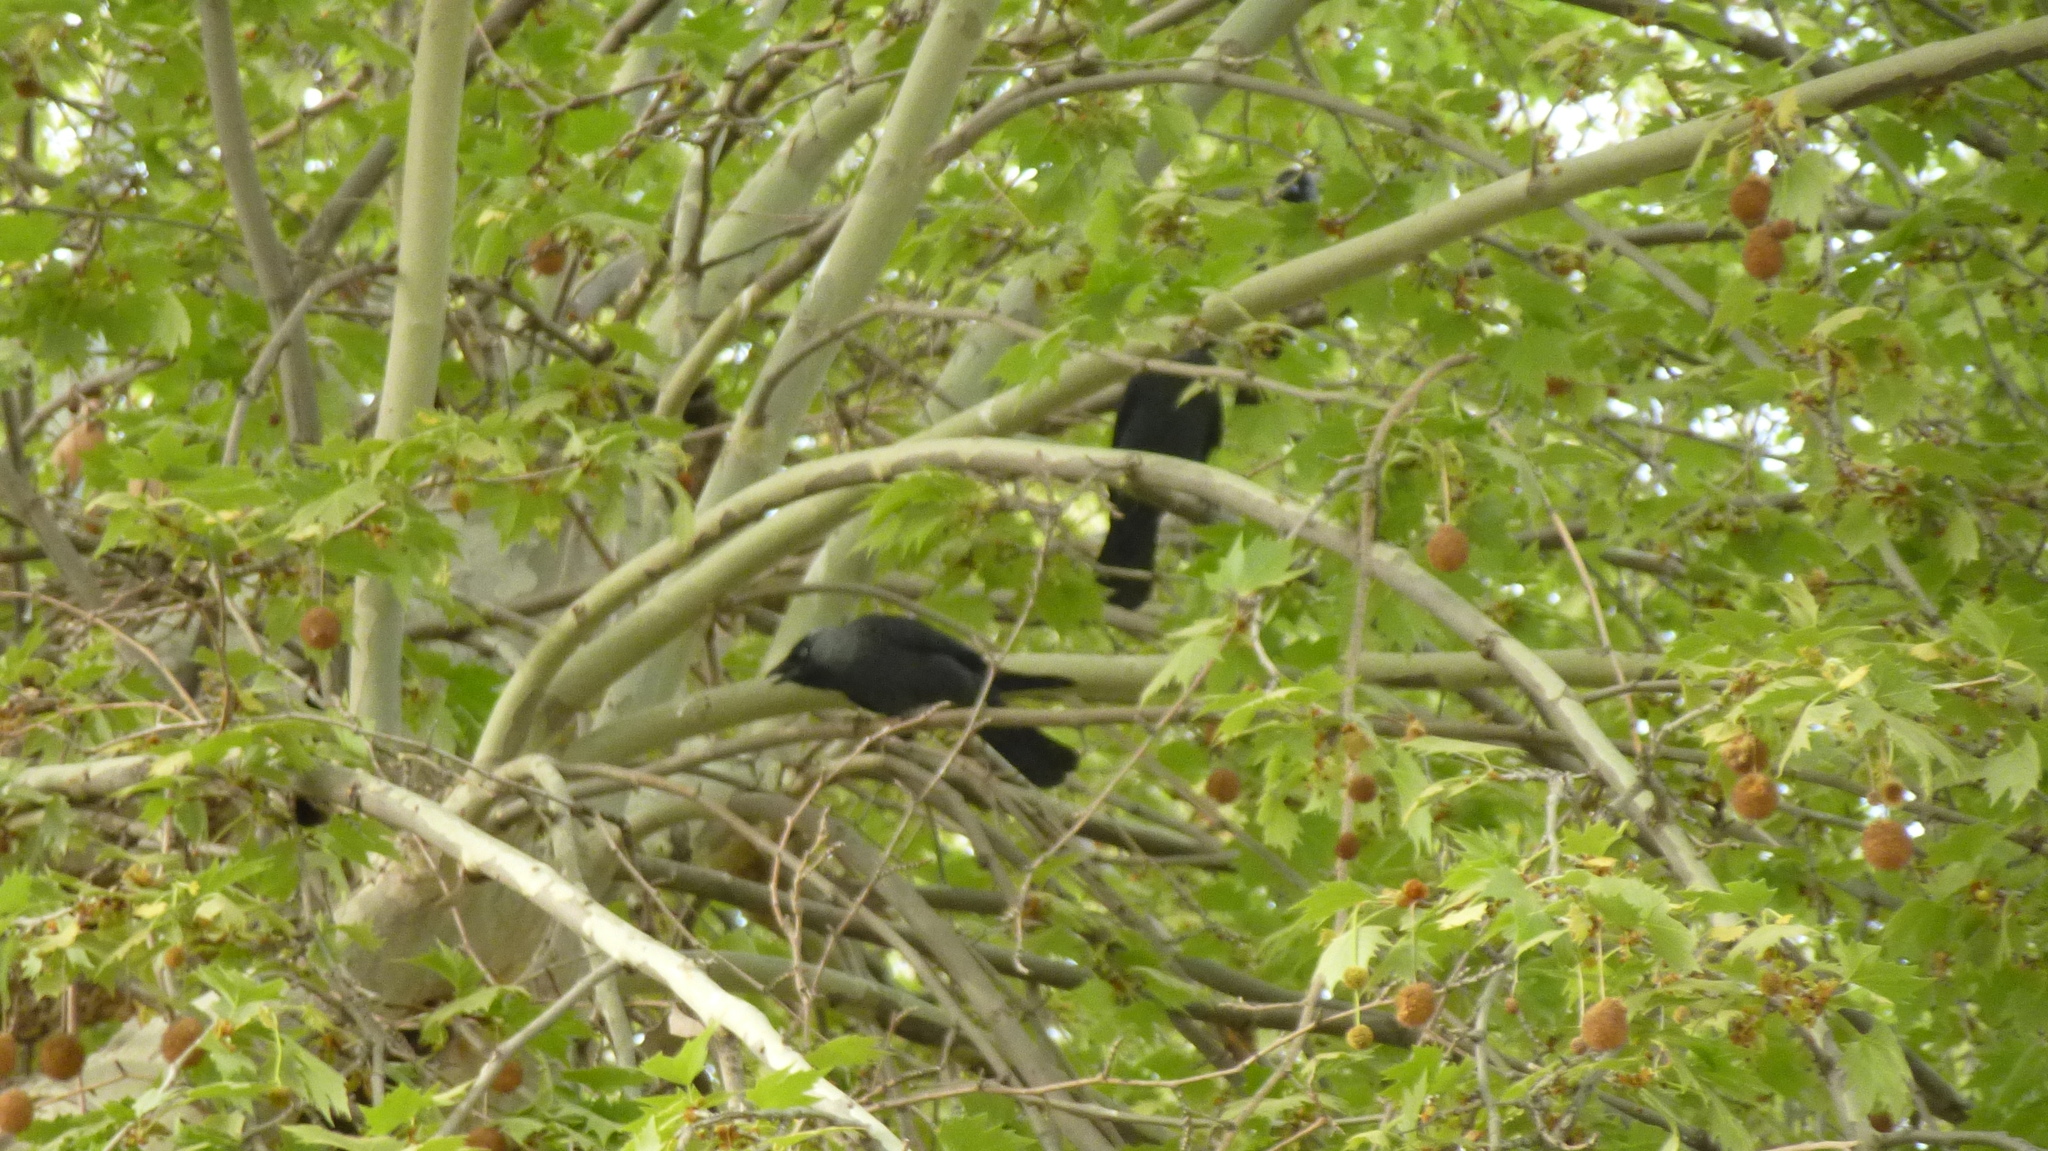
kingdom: Animalia
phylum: Chordata
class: Aves
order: Passeriformes
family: Corvidae
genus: Coloeus
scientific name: Coloeus monedula
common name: Western jackdaw
